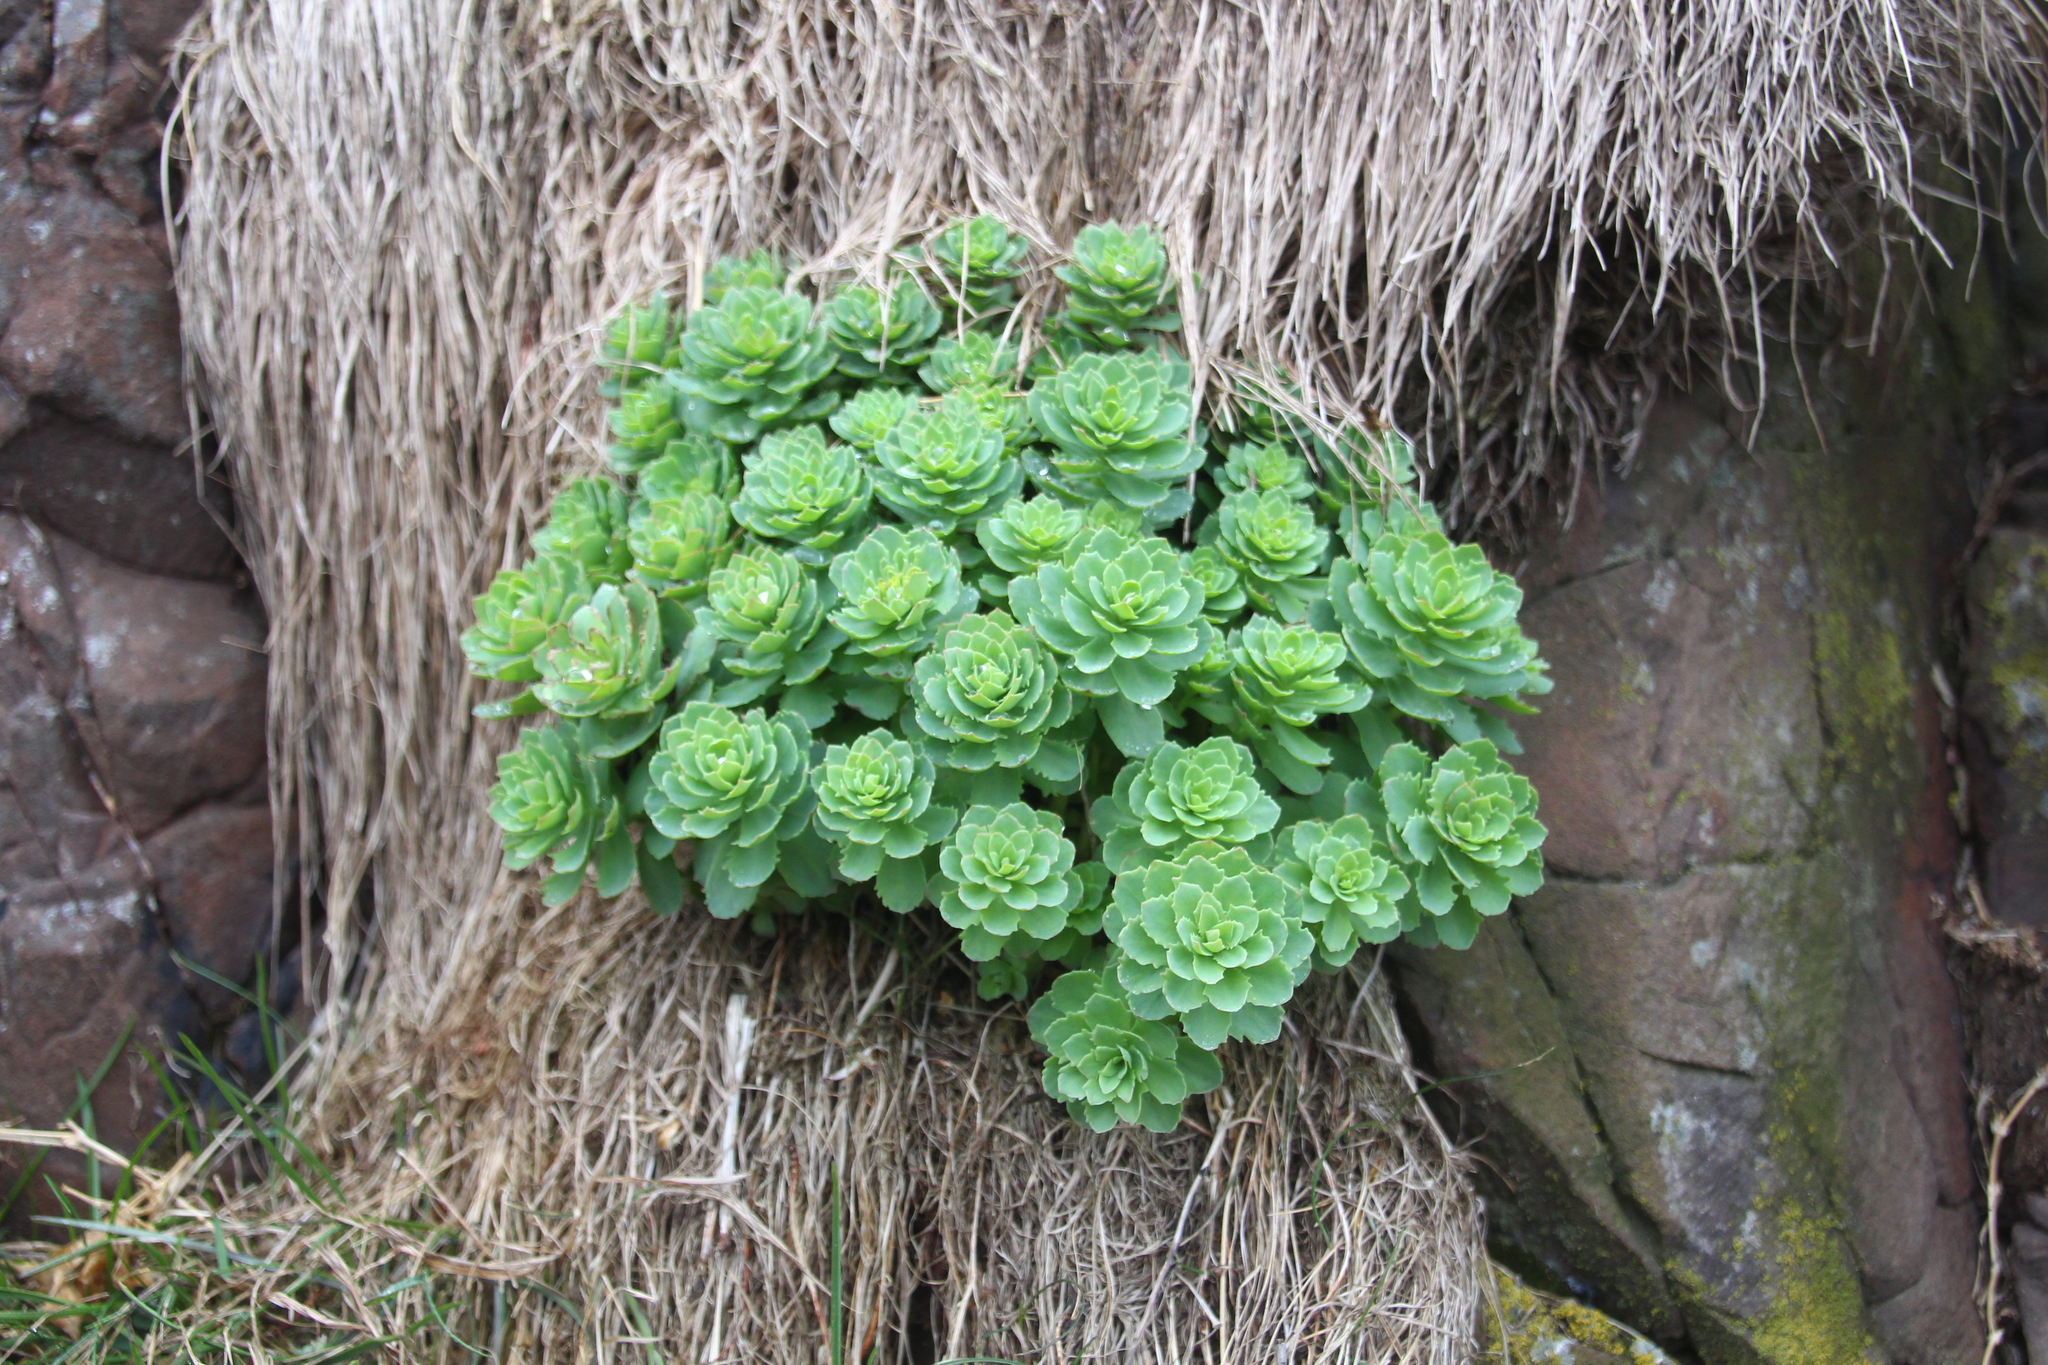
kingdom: Plantae
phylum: Tracheophyta
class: Magnoliopsida
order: Saxifragales
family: Crassulaceae
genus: Rhodiola
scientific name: Rhodiola rosea
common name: Roseroot
